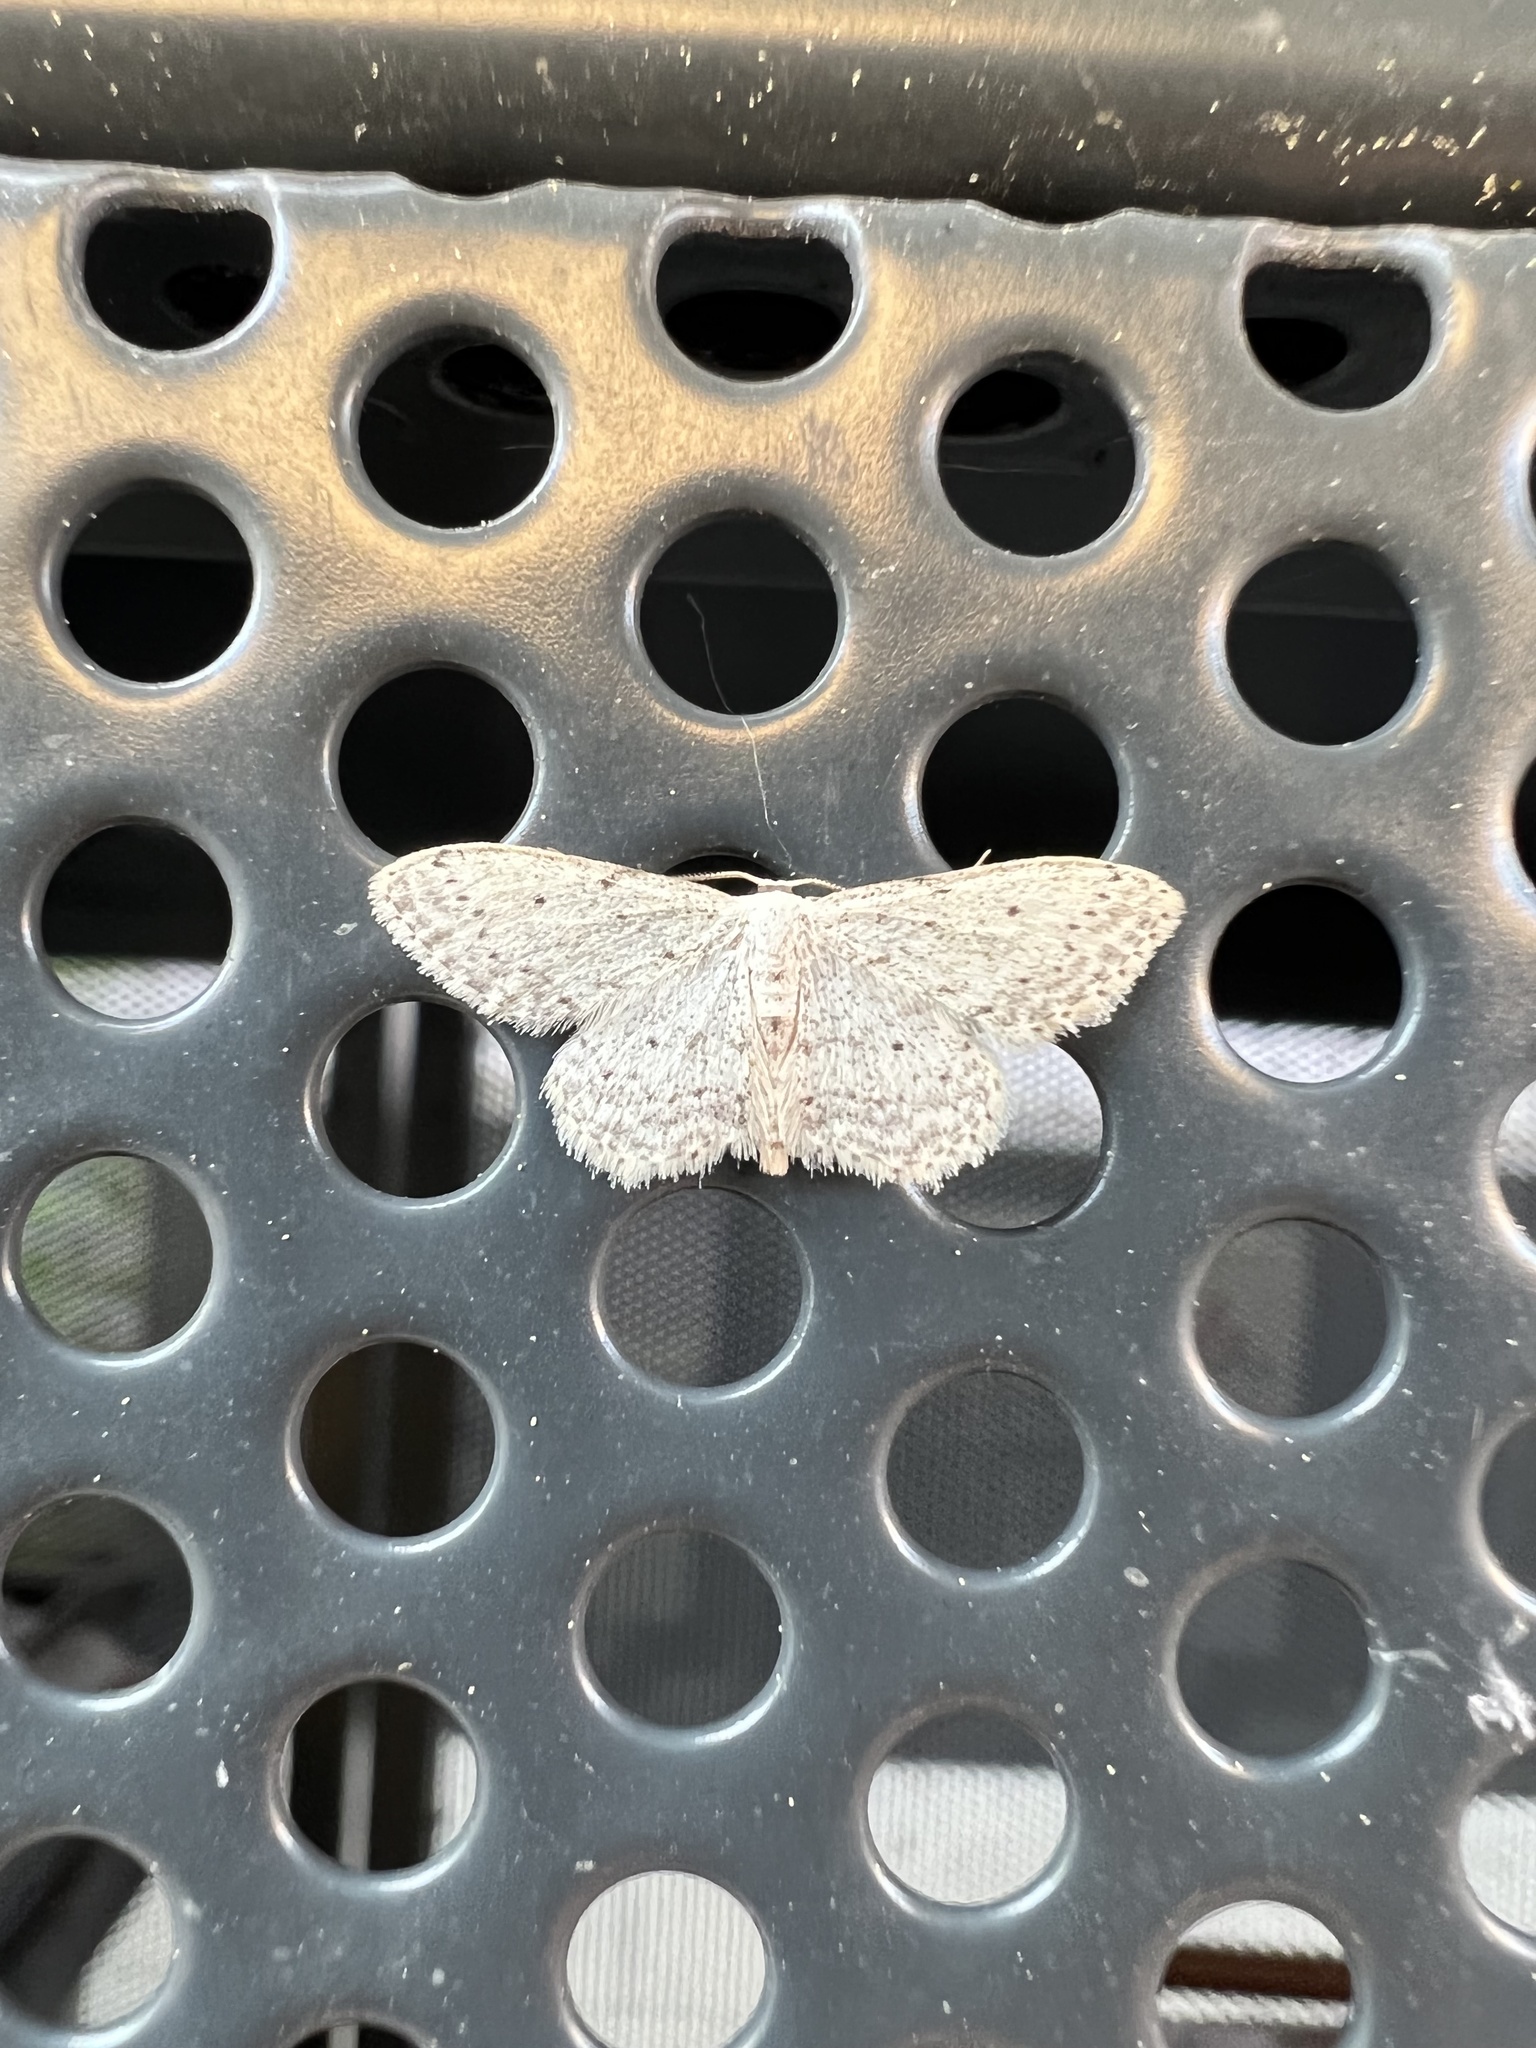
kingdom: Animalia
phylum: Arthropoda
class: Insecta
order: Lepidoptera
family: Geometridae
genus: Idaea
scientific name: Idaea seriata
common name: Small dusty wave
